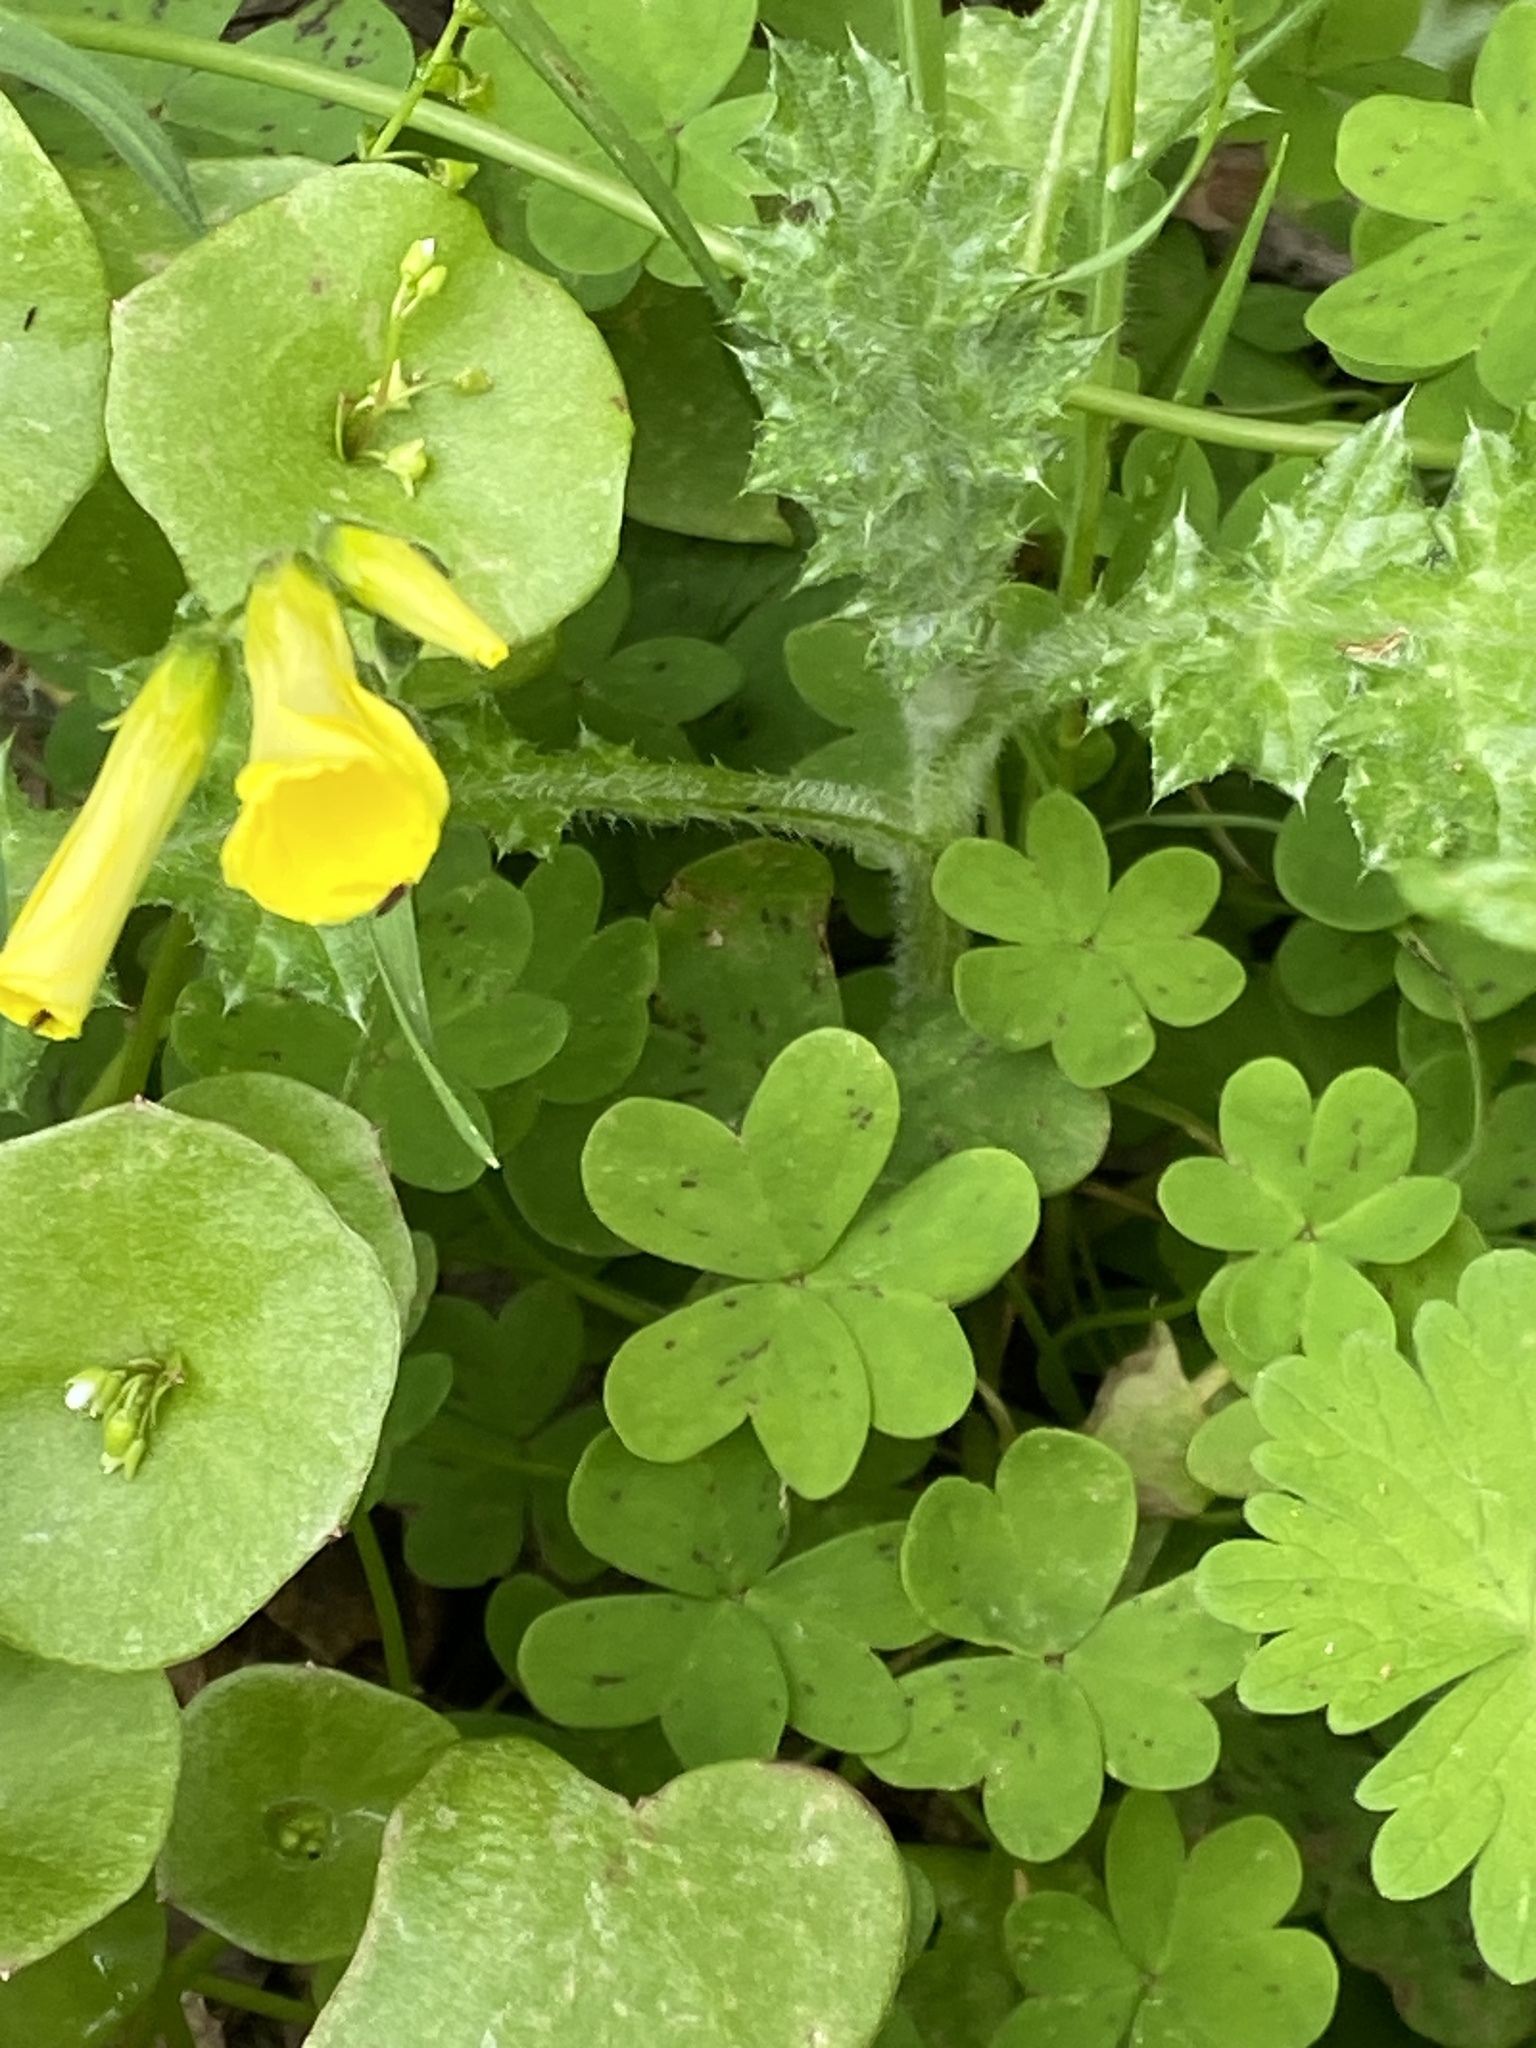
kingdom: Plantae
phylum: Tracheophyta
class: Magnoliopsida
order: Oxalidales
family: Oxalidaceae
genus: Oxalis
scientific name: Oxalis pes-caprae
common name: Bermuda-buttercup
